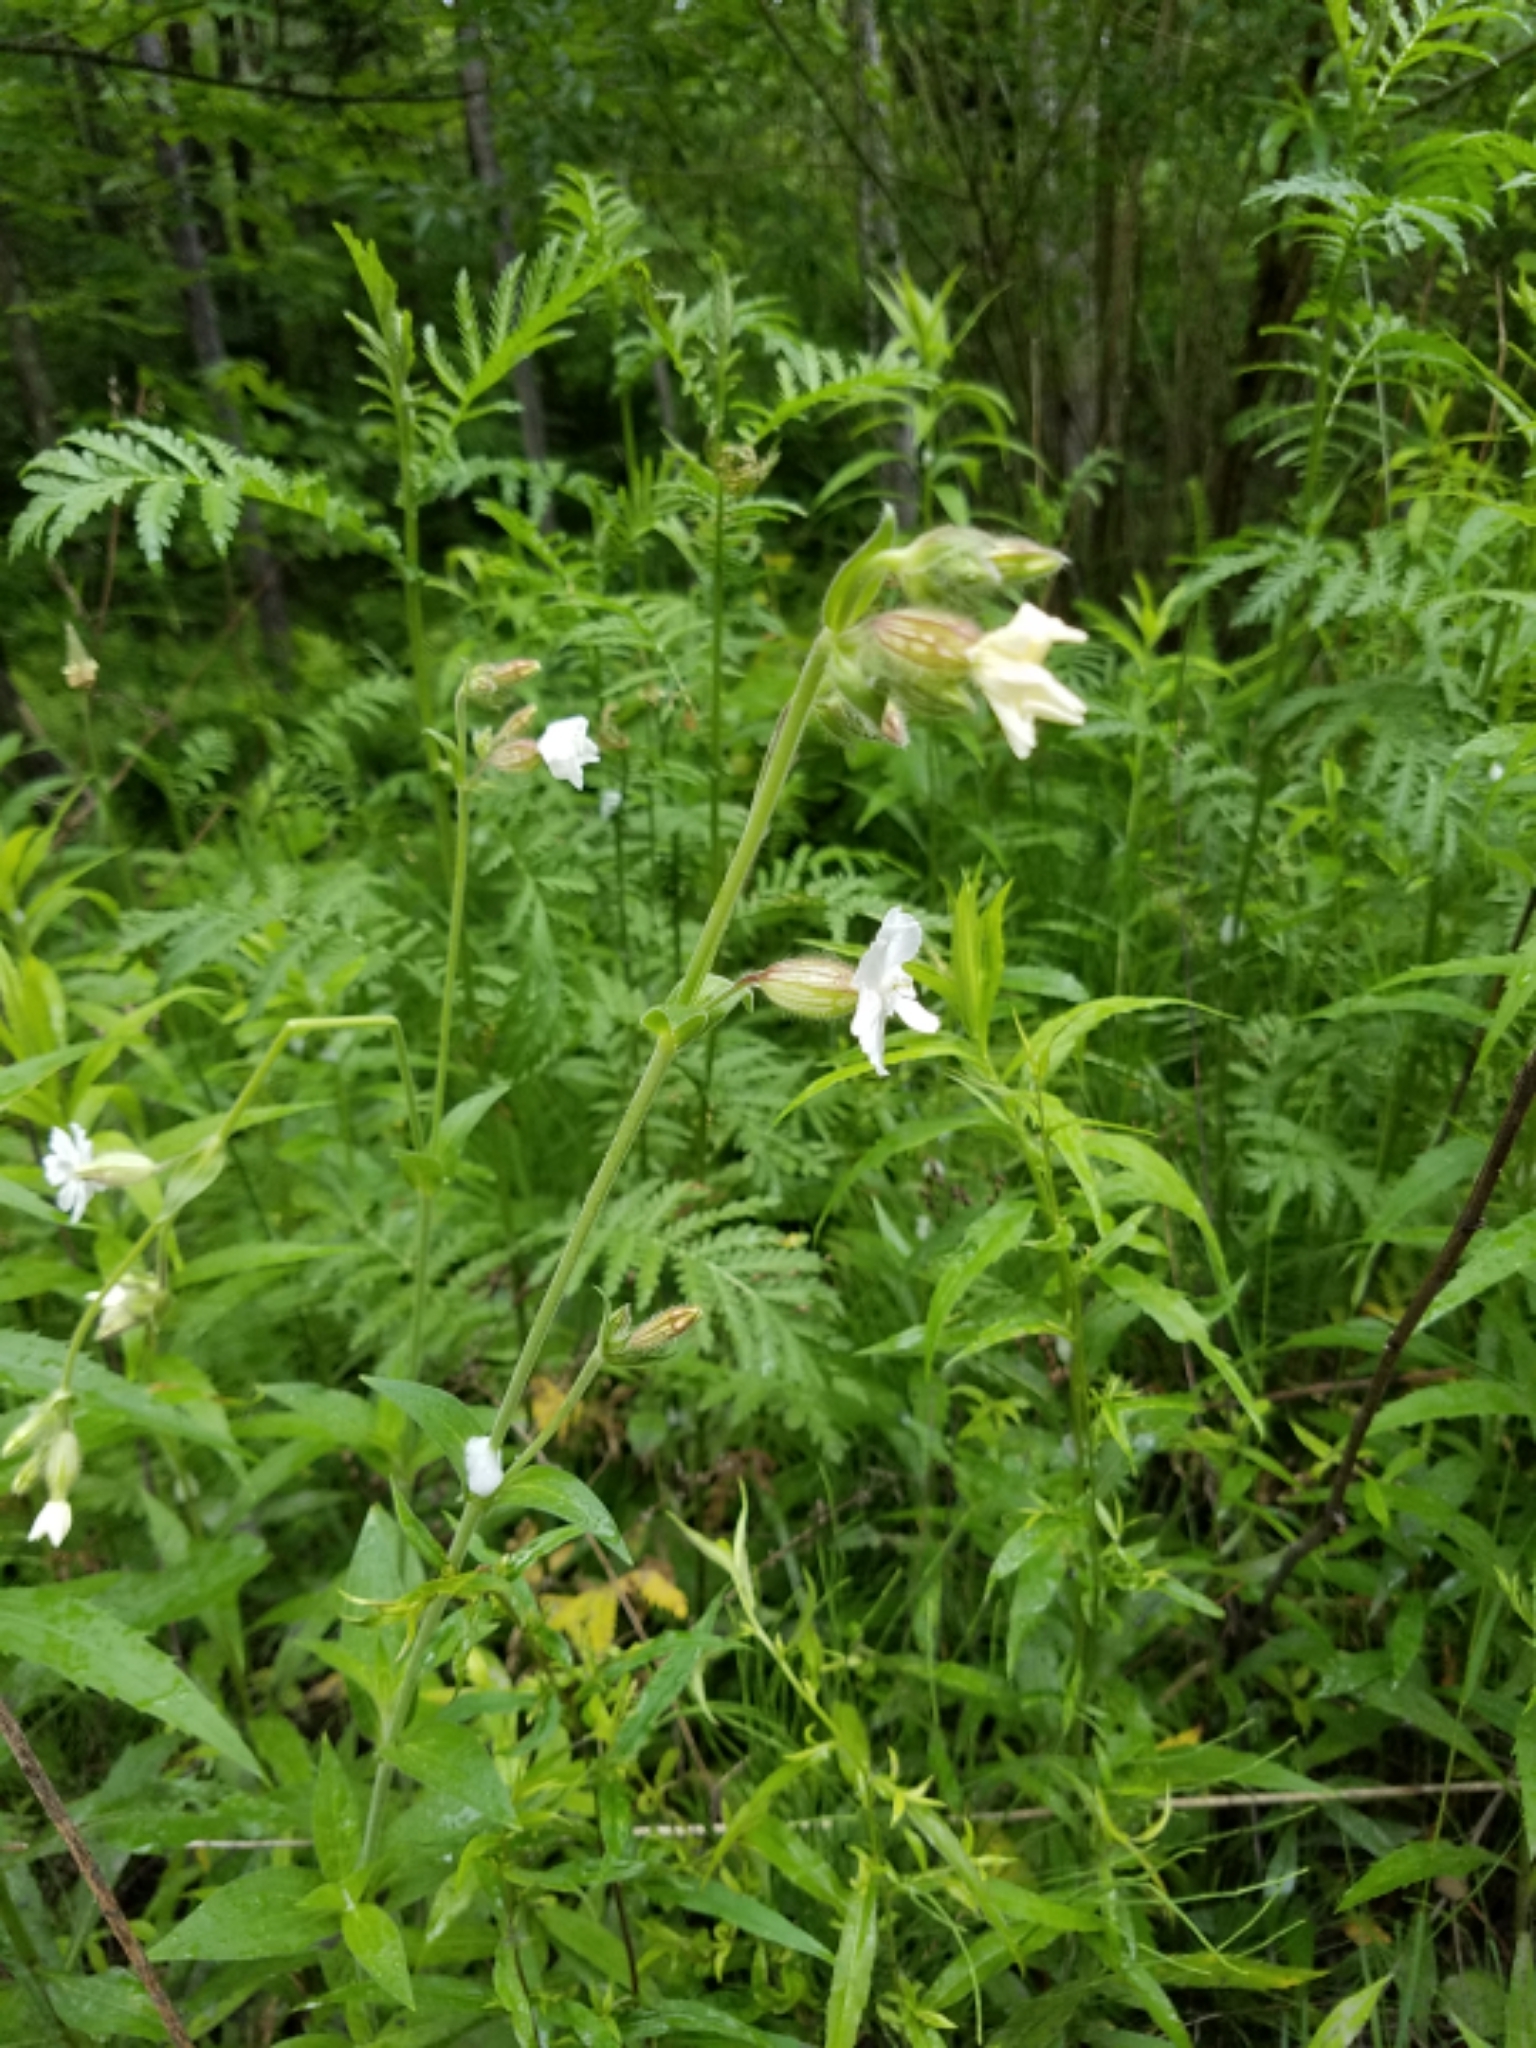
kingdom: Plantae
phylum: Tracheophyta
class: Magnoliopsida
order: Caryophyllales
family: Caryophyllaceae
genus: Silene
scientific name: Silene latifolia
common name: White campion
